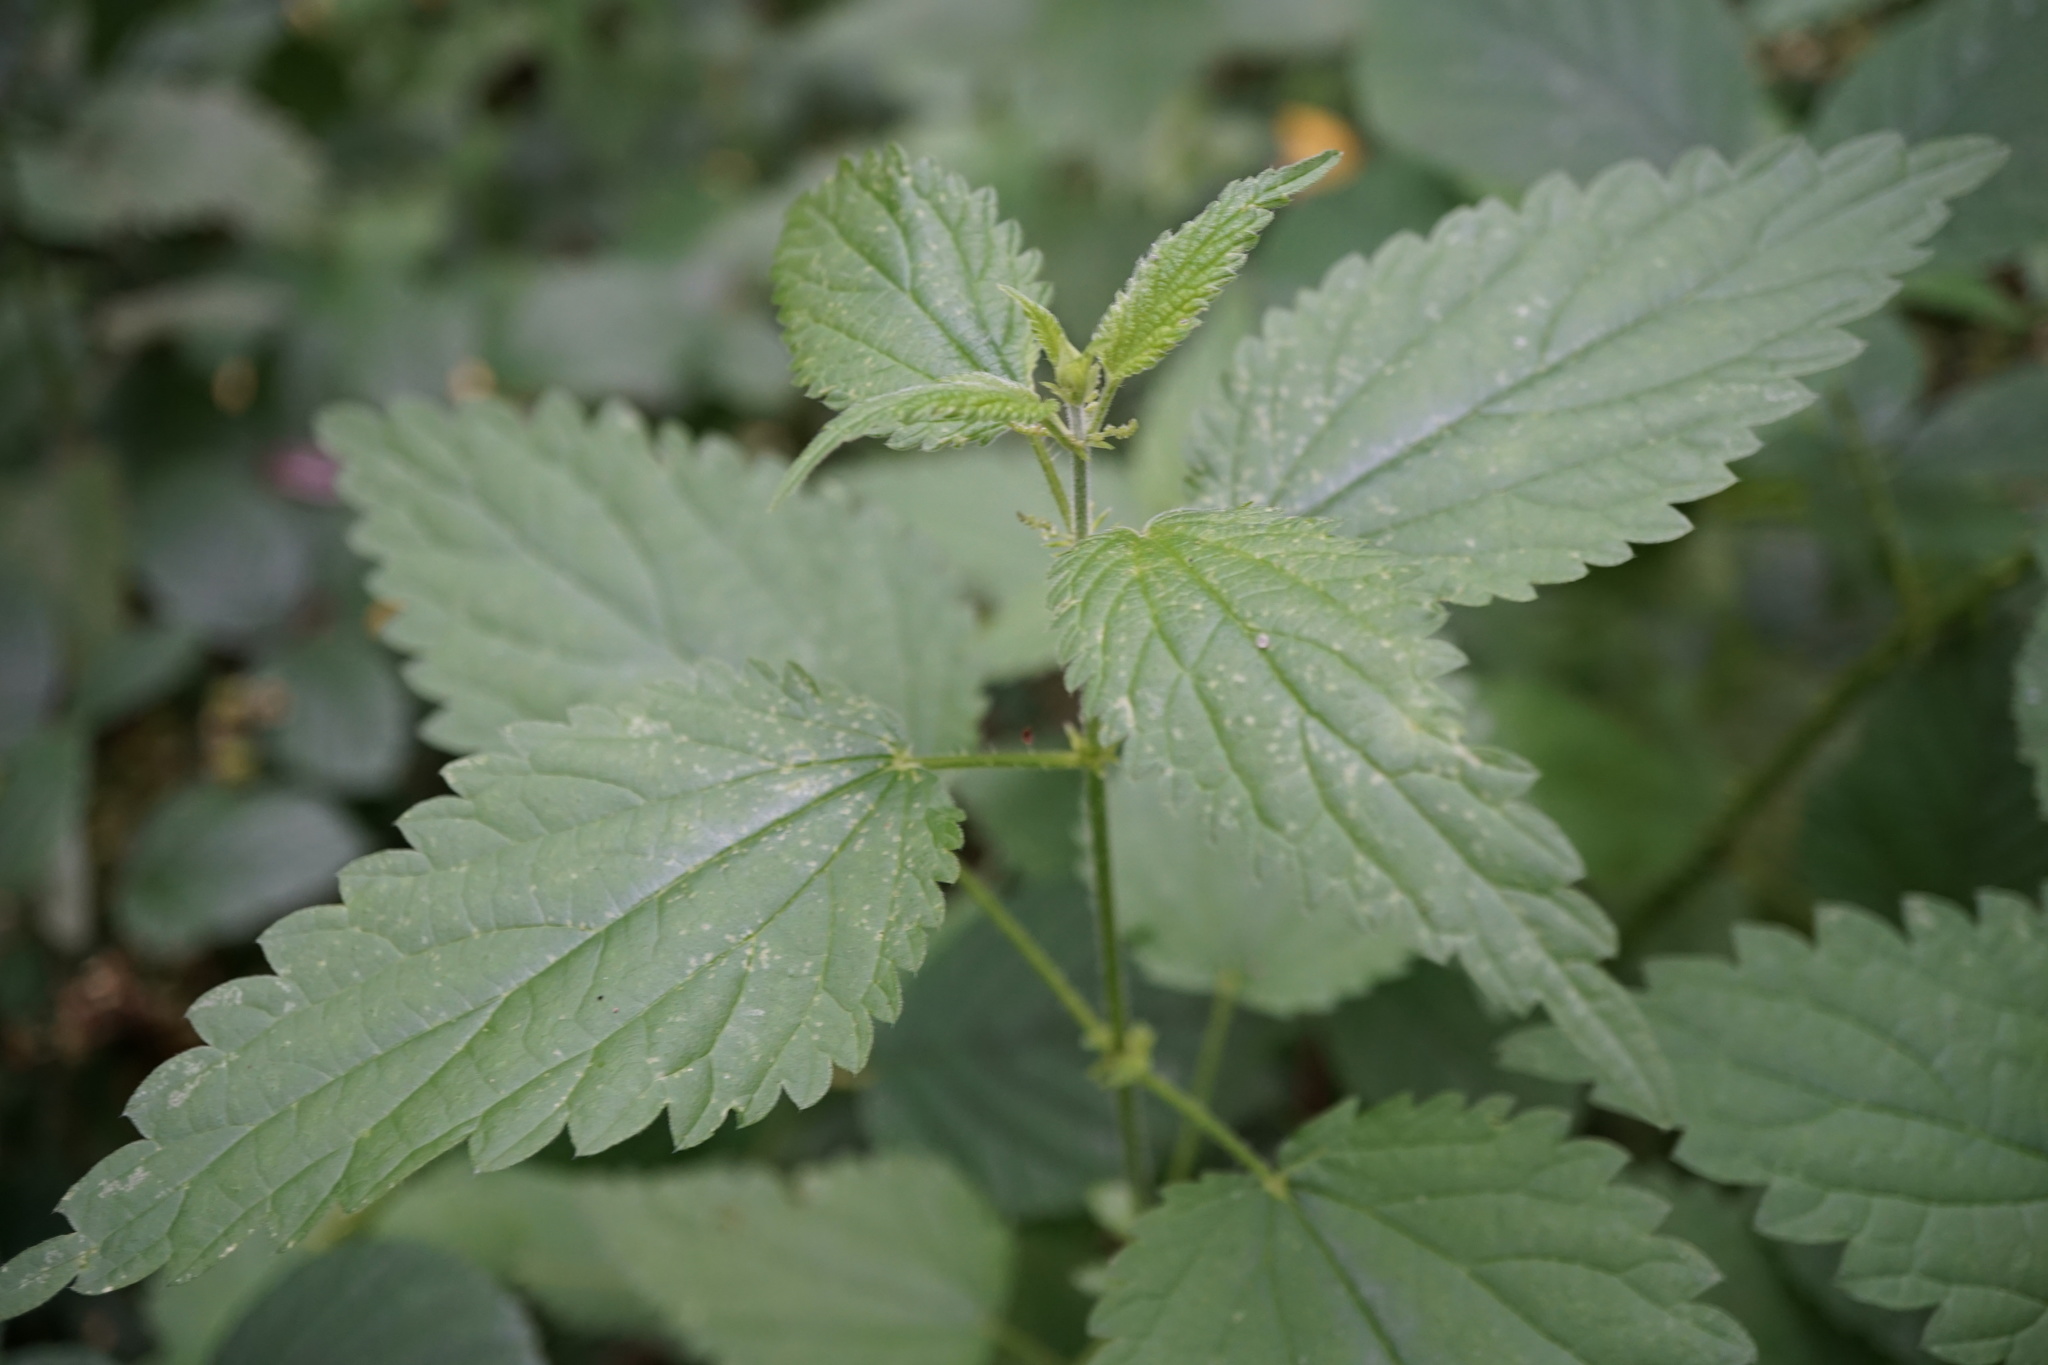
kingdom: Plantae
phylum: Tracheophyta
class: Magnoliopsida
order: Rosales
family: Urticaceae
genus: Urtica
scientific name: Urtica dioica
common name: Common nettle
